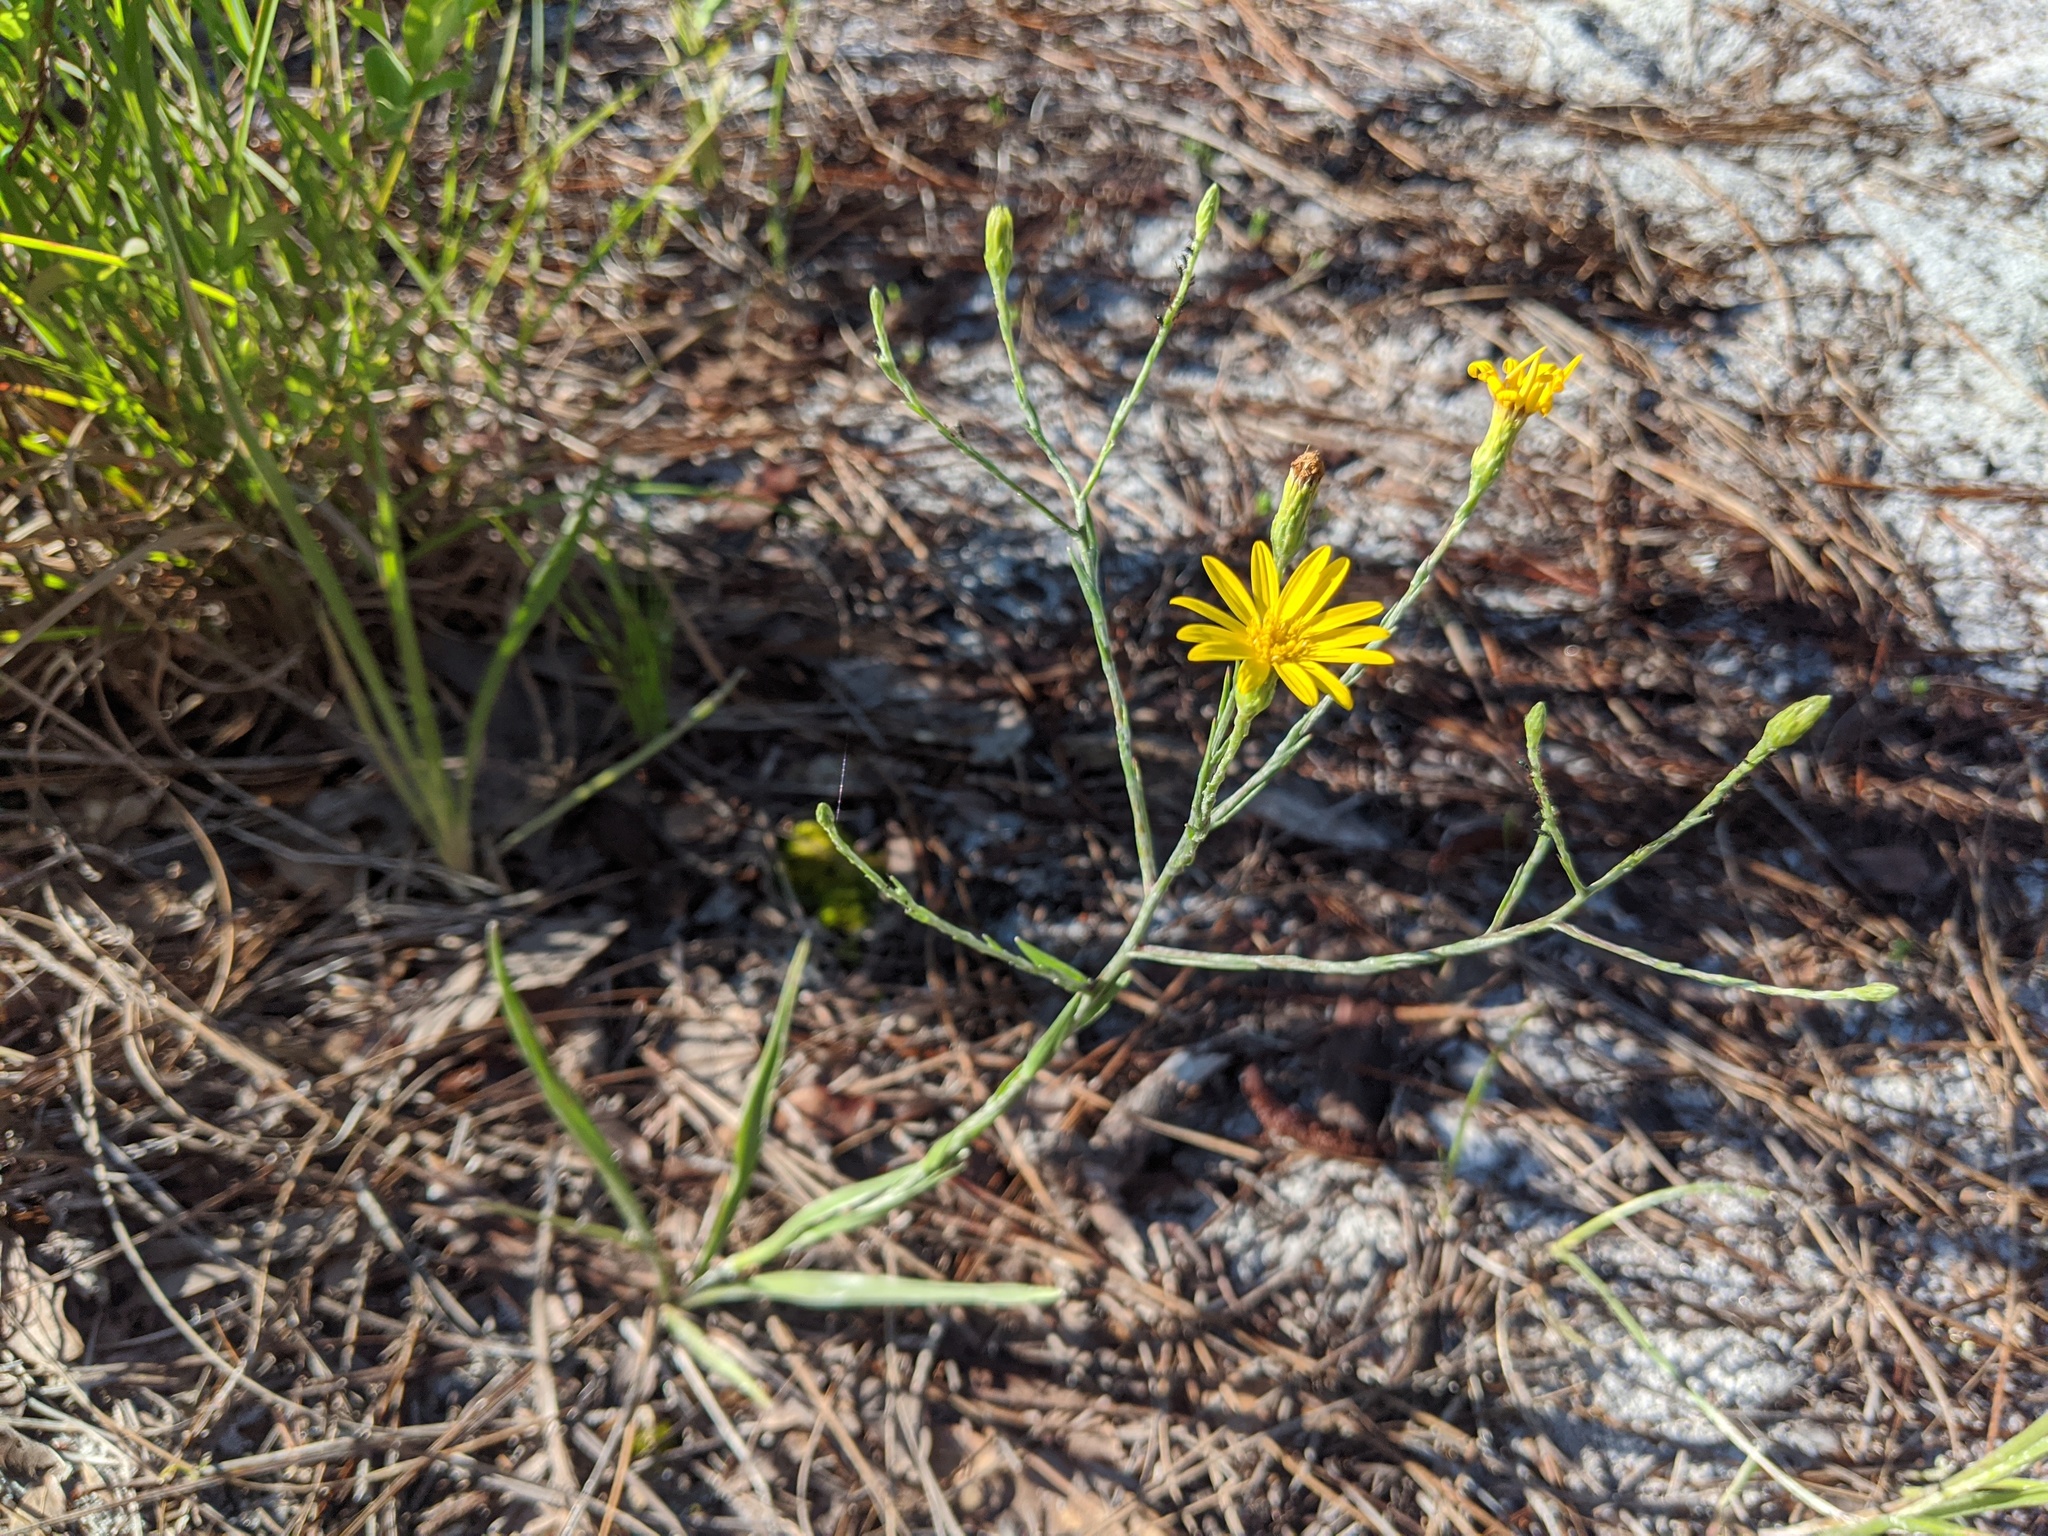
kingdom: Plantae
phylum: Tracheophyta
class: Magnoliopsida
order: Asterales
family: Asteraceae
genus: Pityopsis
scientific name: Pityopsis graminifolia
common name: Grass-leaf golden-aster
